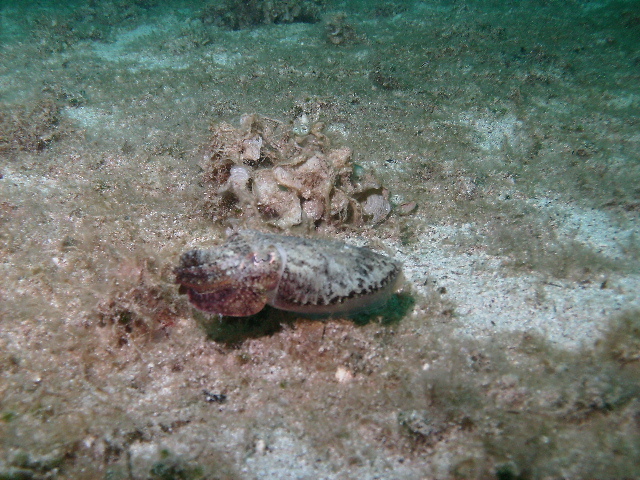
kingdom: Animalia
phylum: Mollusca
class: Cephalopoda
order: Sepiida
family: Sepiidae
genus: Sepia
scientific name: Sepia officinalis
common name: Common cuttlefish
